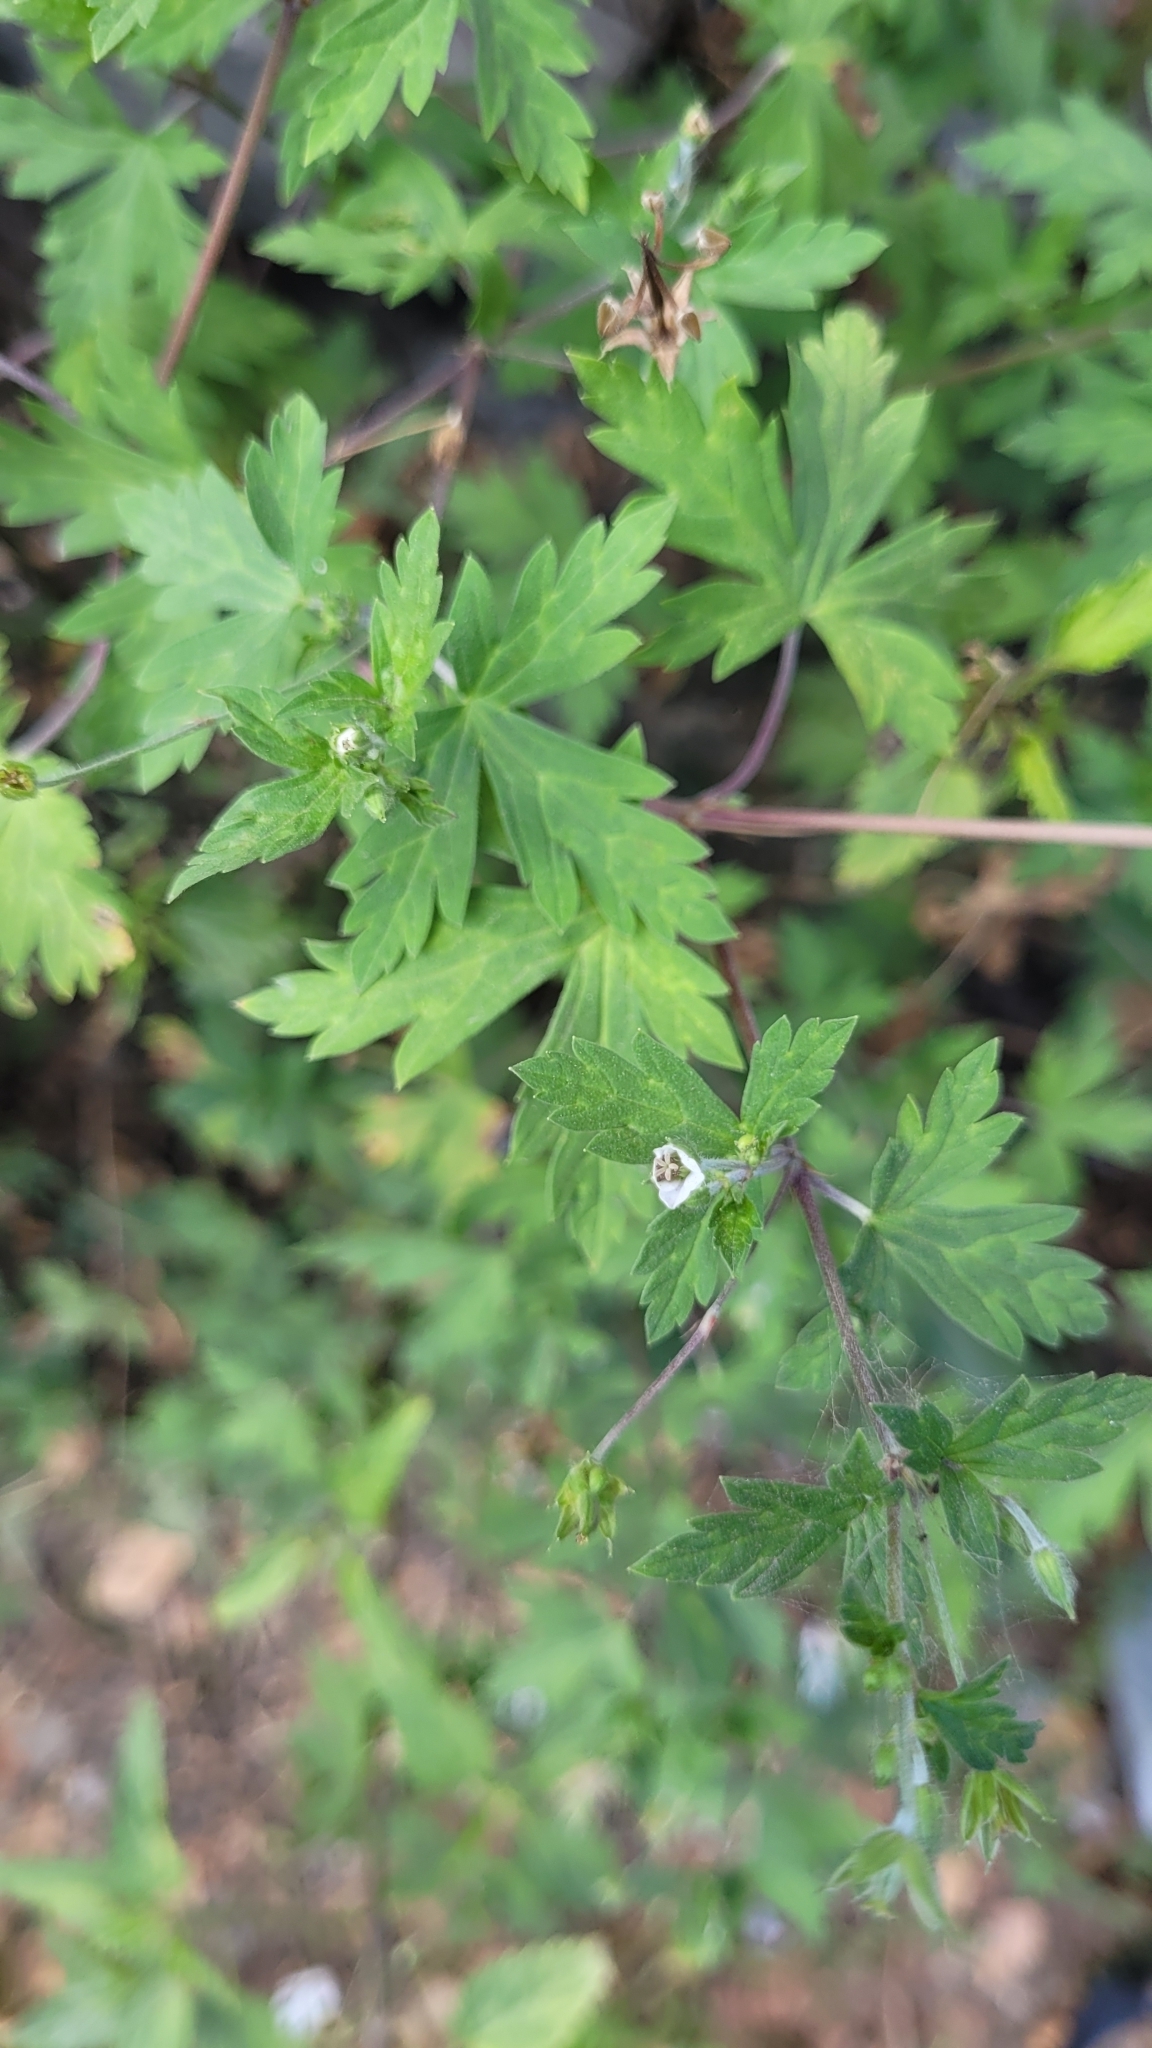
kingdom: Plantae
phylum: Tracheophyta
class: Magnoliopsida
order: Geraniales
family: Geraniaceae
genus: Geranium
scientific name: Geranium sibiricum
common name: Siberian crane's-bill
